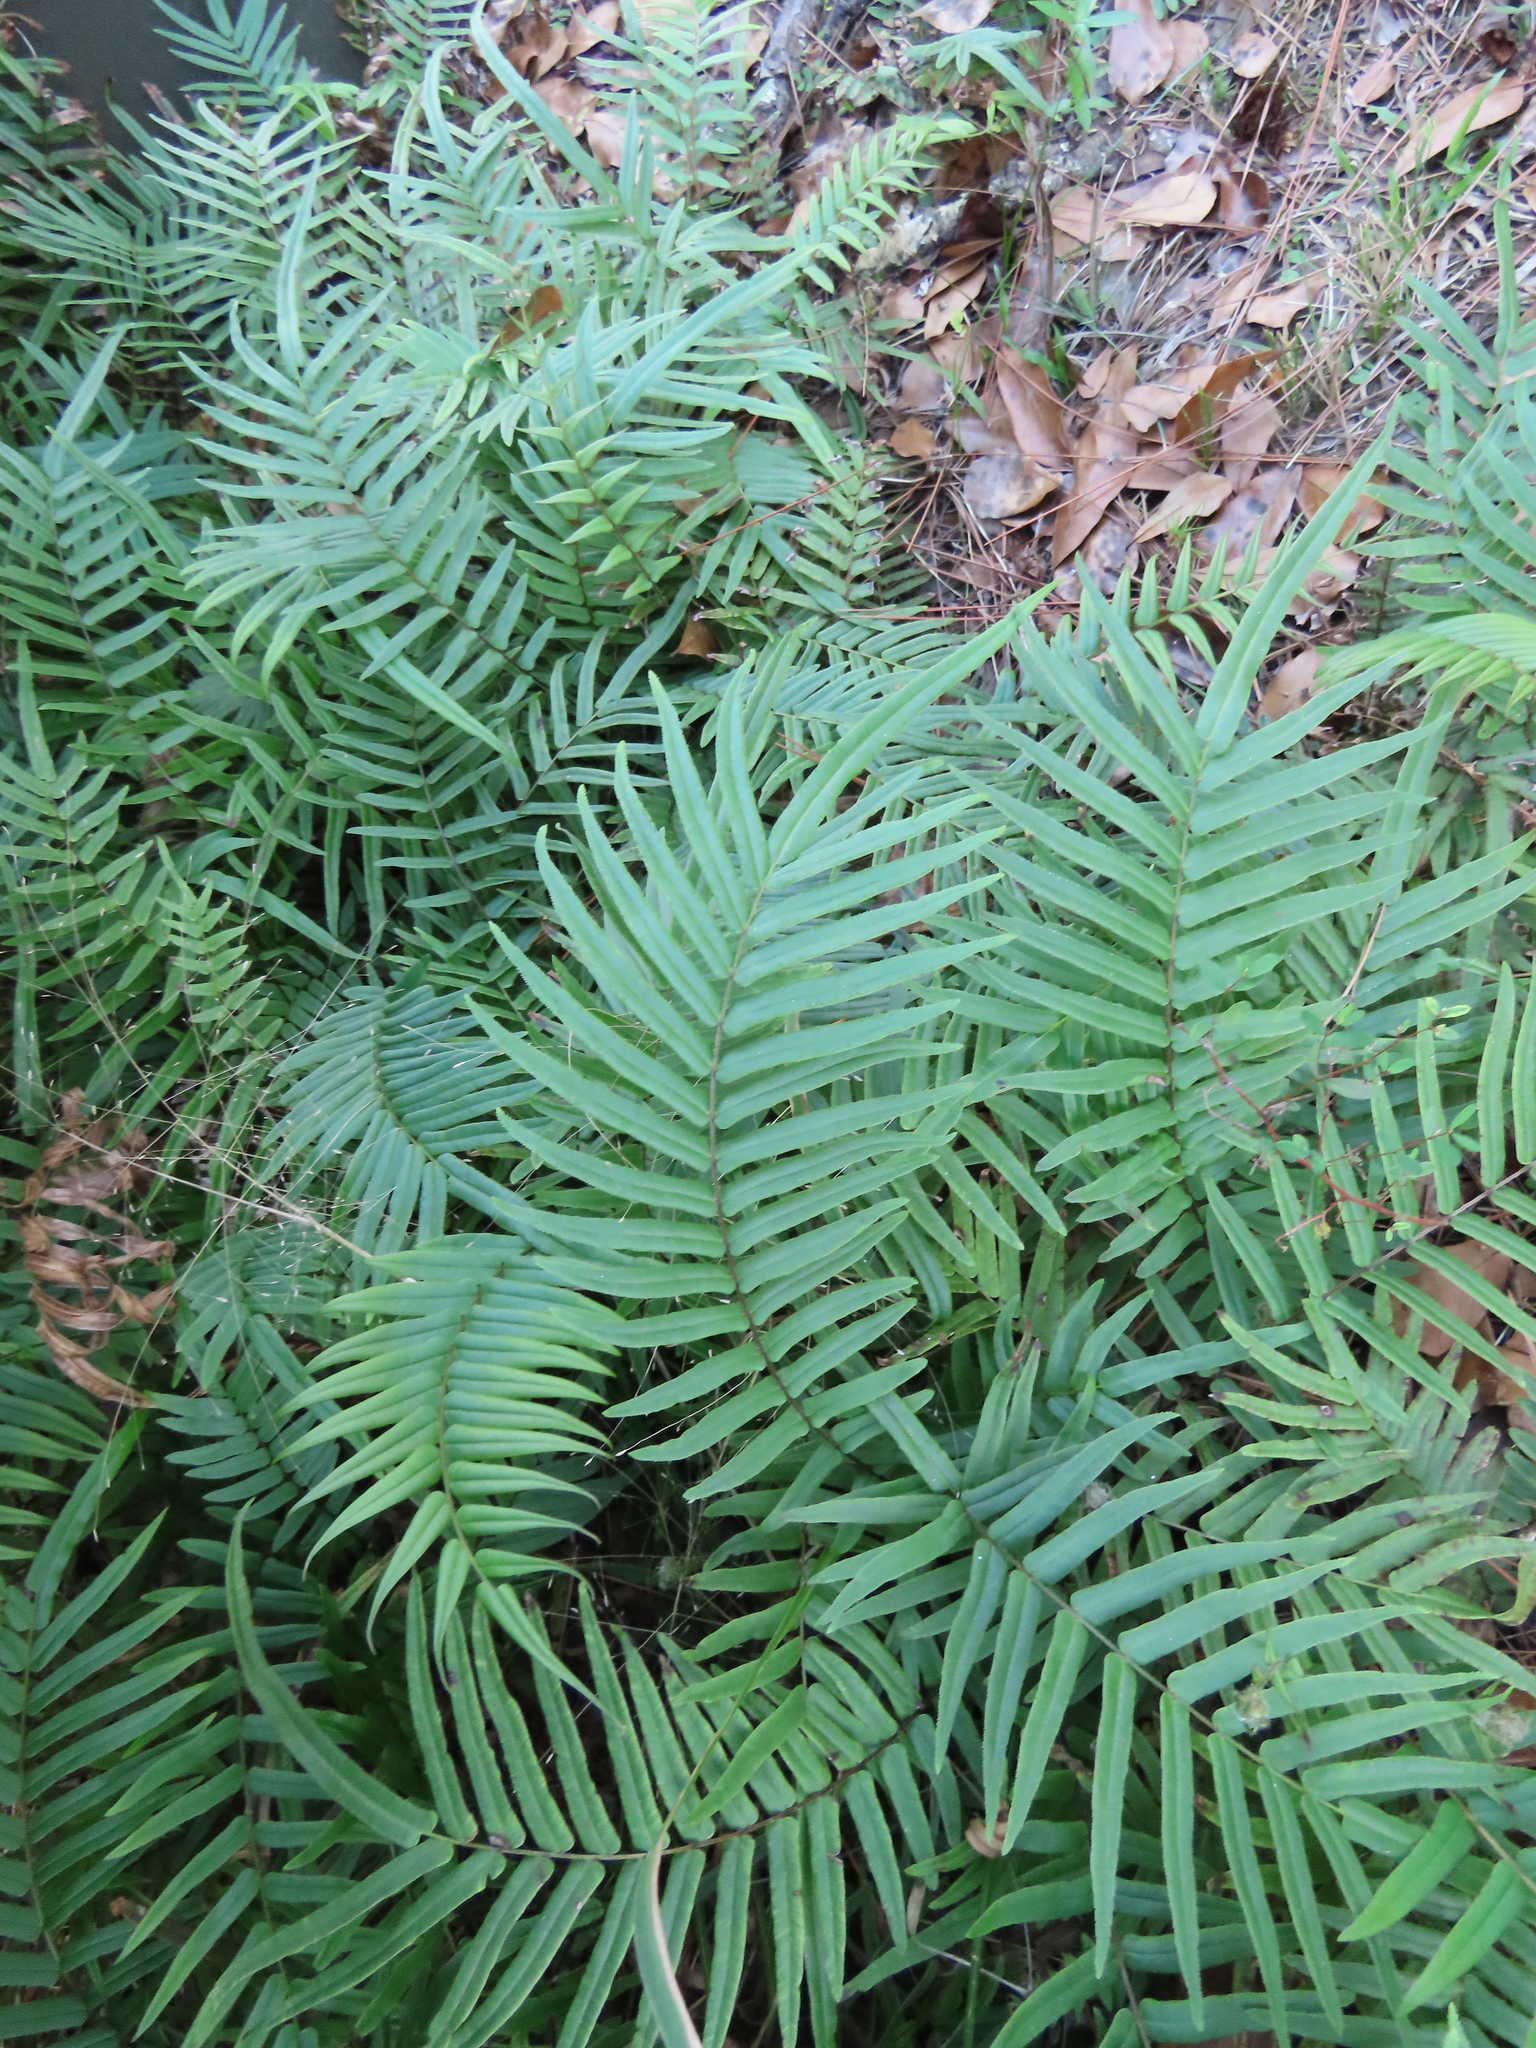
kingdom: Plantae
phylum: Tracheophyta
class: Polypodiopsida
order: Polypodiales
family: Pteridaceae
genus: Pteris
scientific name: Pteris vittata
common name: Ladder brake
